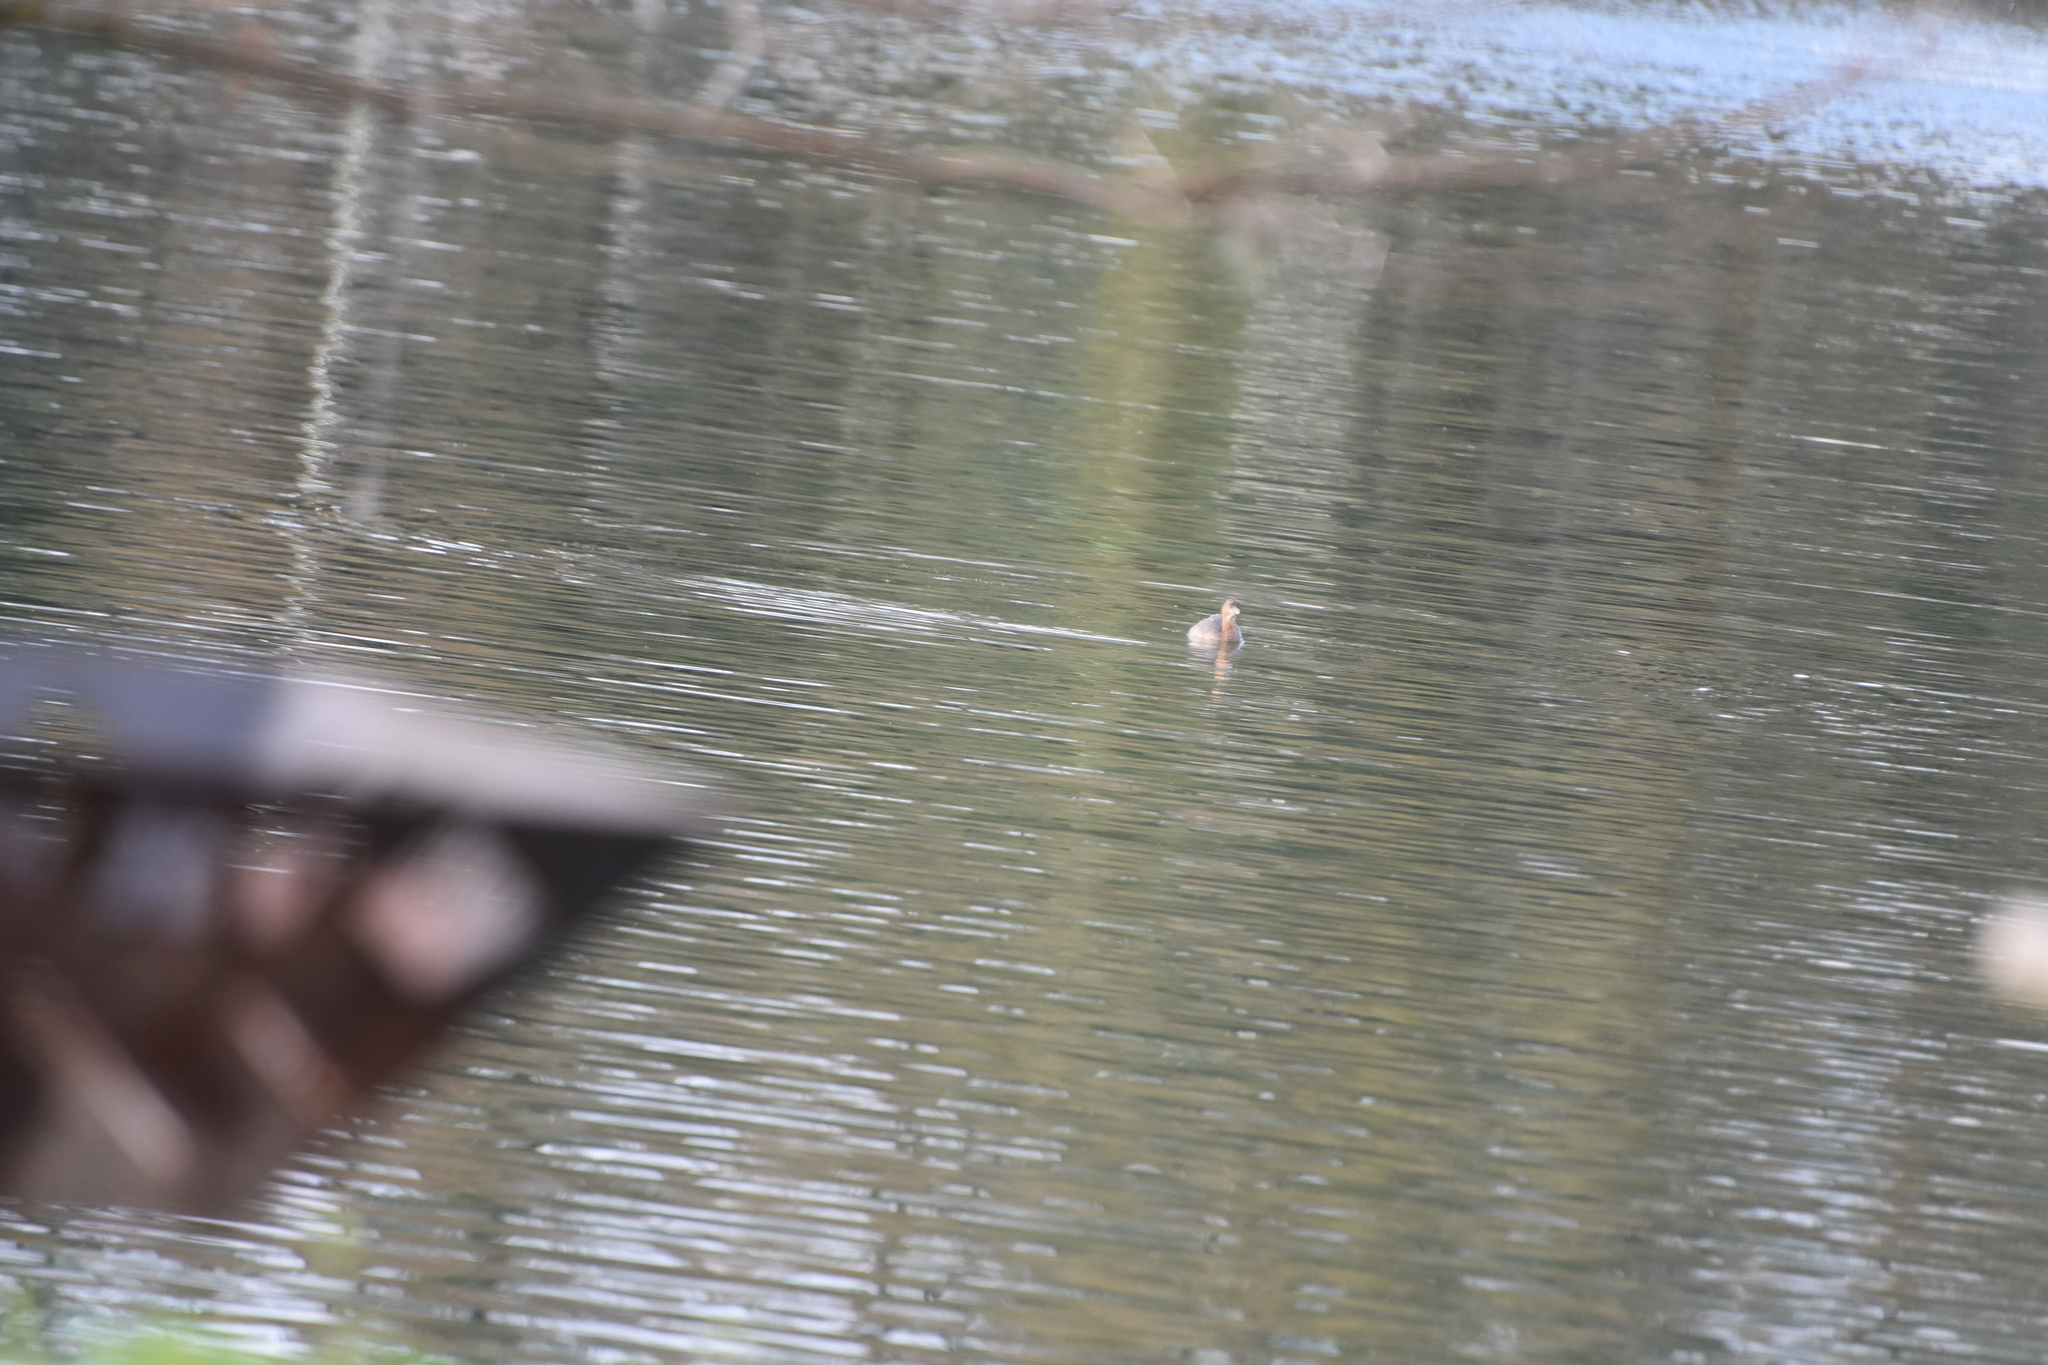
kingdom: Animalia
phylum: Chordata
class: Aves
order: Podicipediformes
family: Podicipedidae
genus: Podilymbus
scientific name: Podilymbus podiceps
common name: Pied-billed grebe
